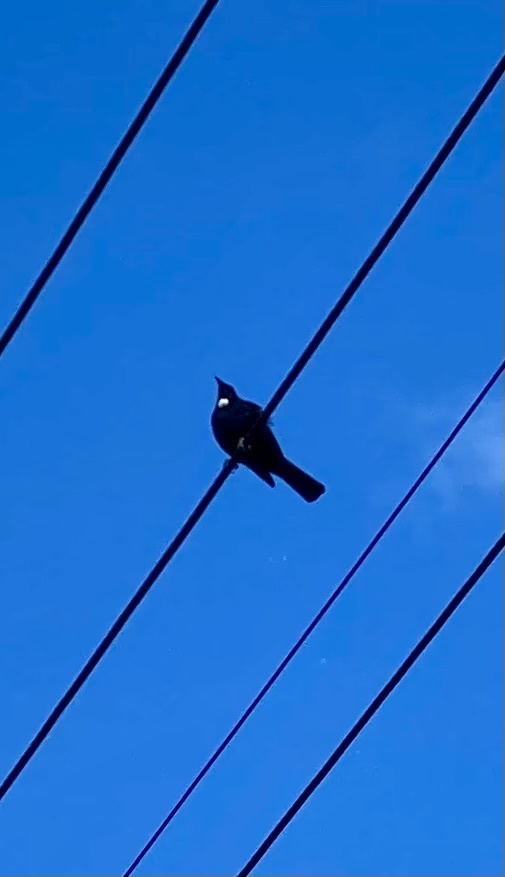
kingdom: Animalia
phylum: Chordata
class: Aves
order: Passeriformes
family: Meliphagidae
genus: Prosthemadera
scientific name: Prosthemadera novaeseelandiae
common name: Tui
